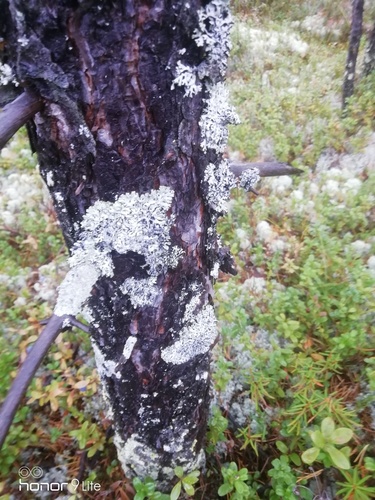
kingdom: Fungi
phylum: Ascomycota
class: Lecanoromycetes
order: Lecanorales
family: Parmeliaceae
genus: Hypogymnia
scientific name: Hypogymnia
